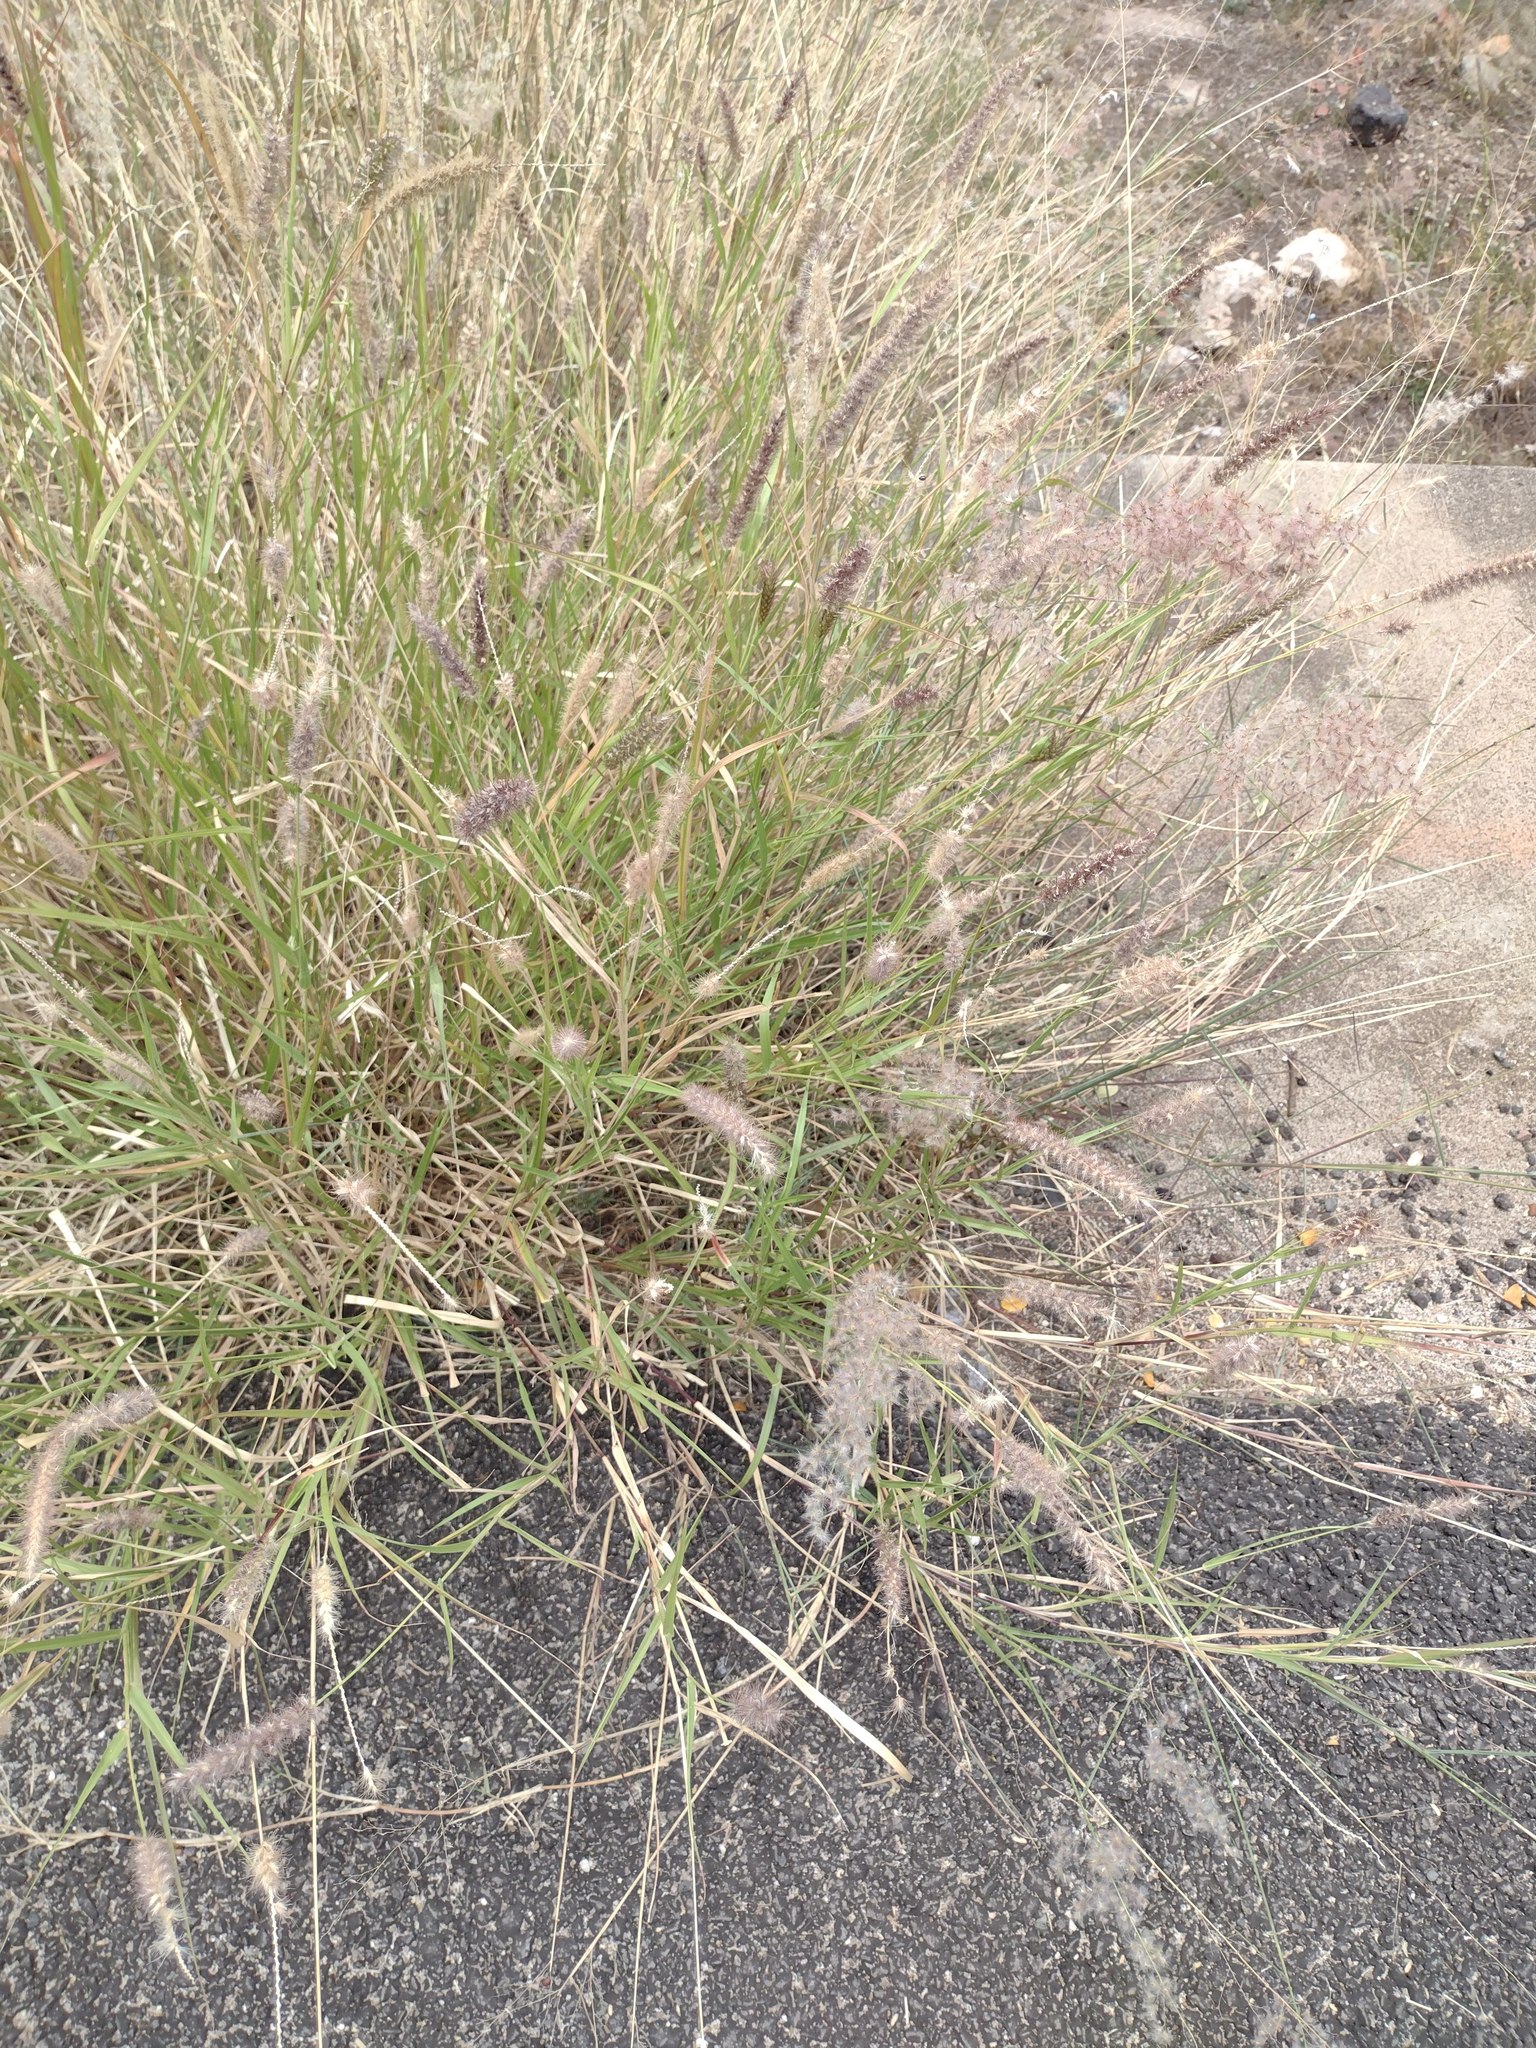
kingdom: Plantae
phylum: Tracheophyta
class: Liliopsida
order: Poales
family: Poaceae
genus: Cenchrus
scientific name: Cenchrus ciliaris
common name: Buffelgrass
